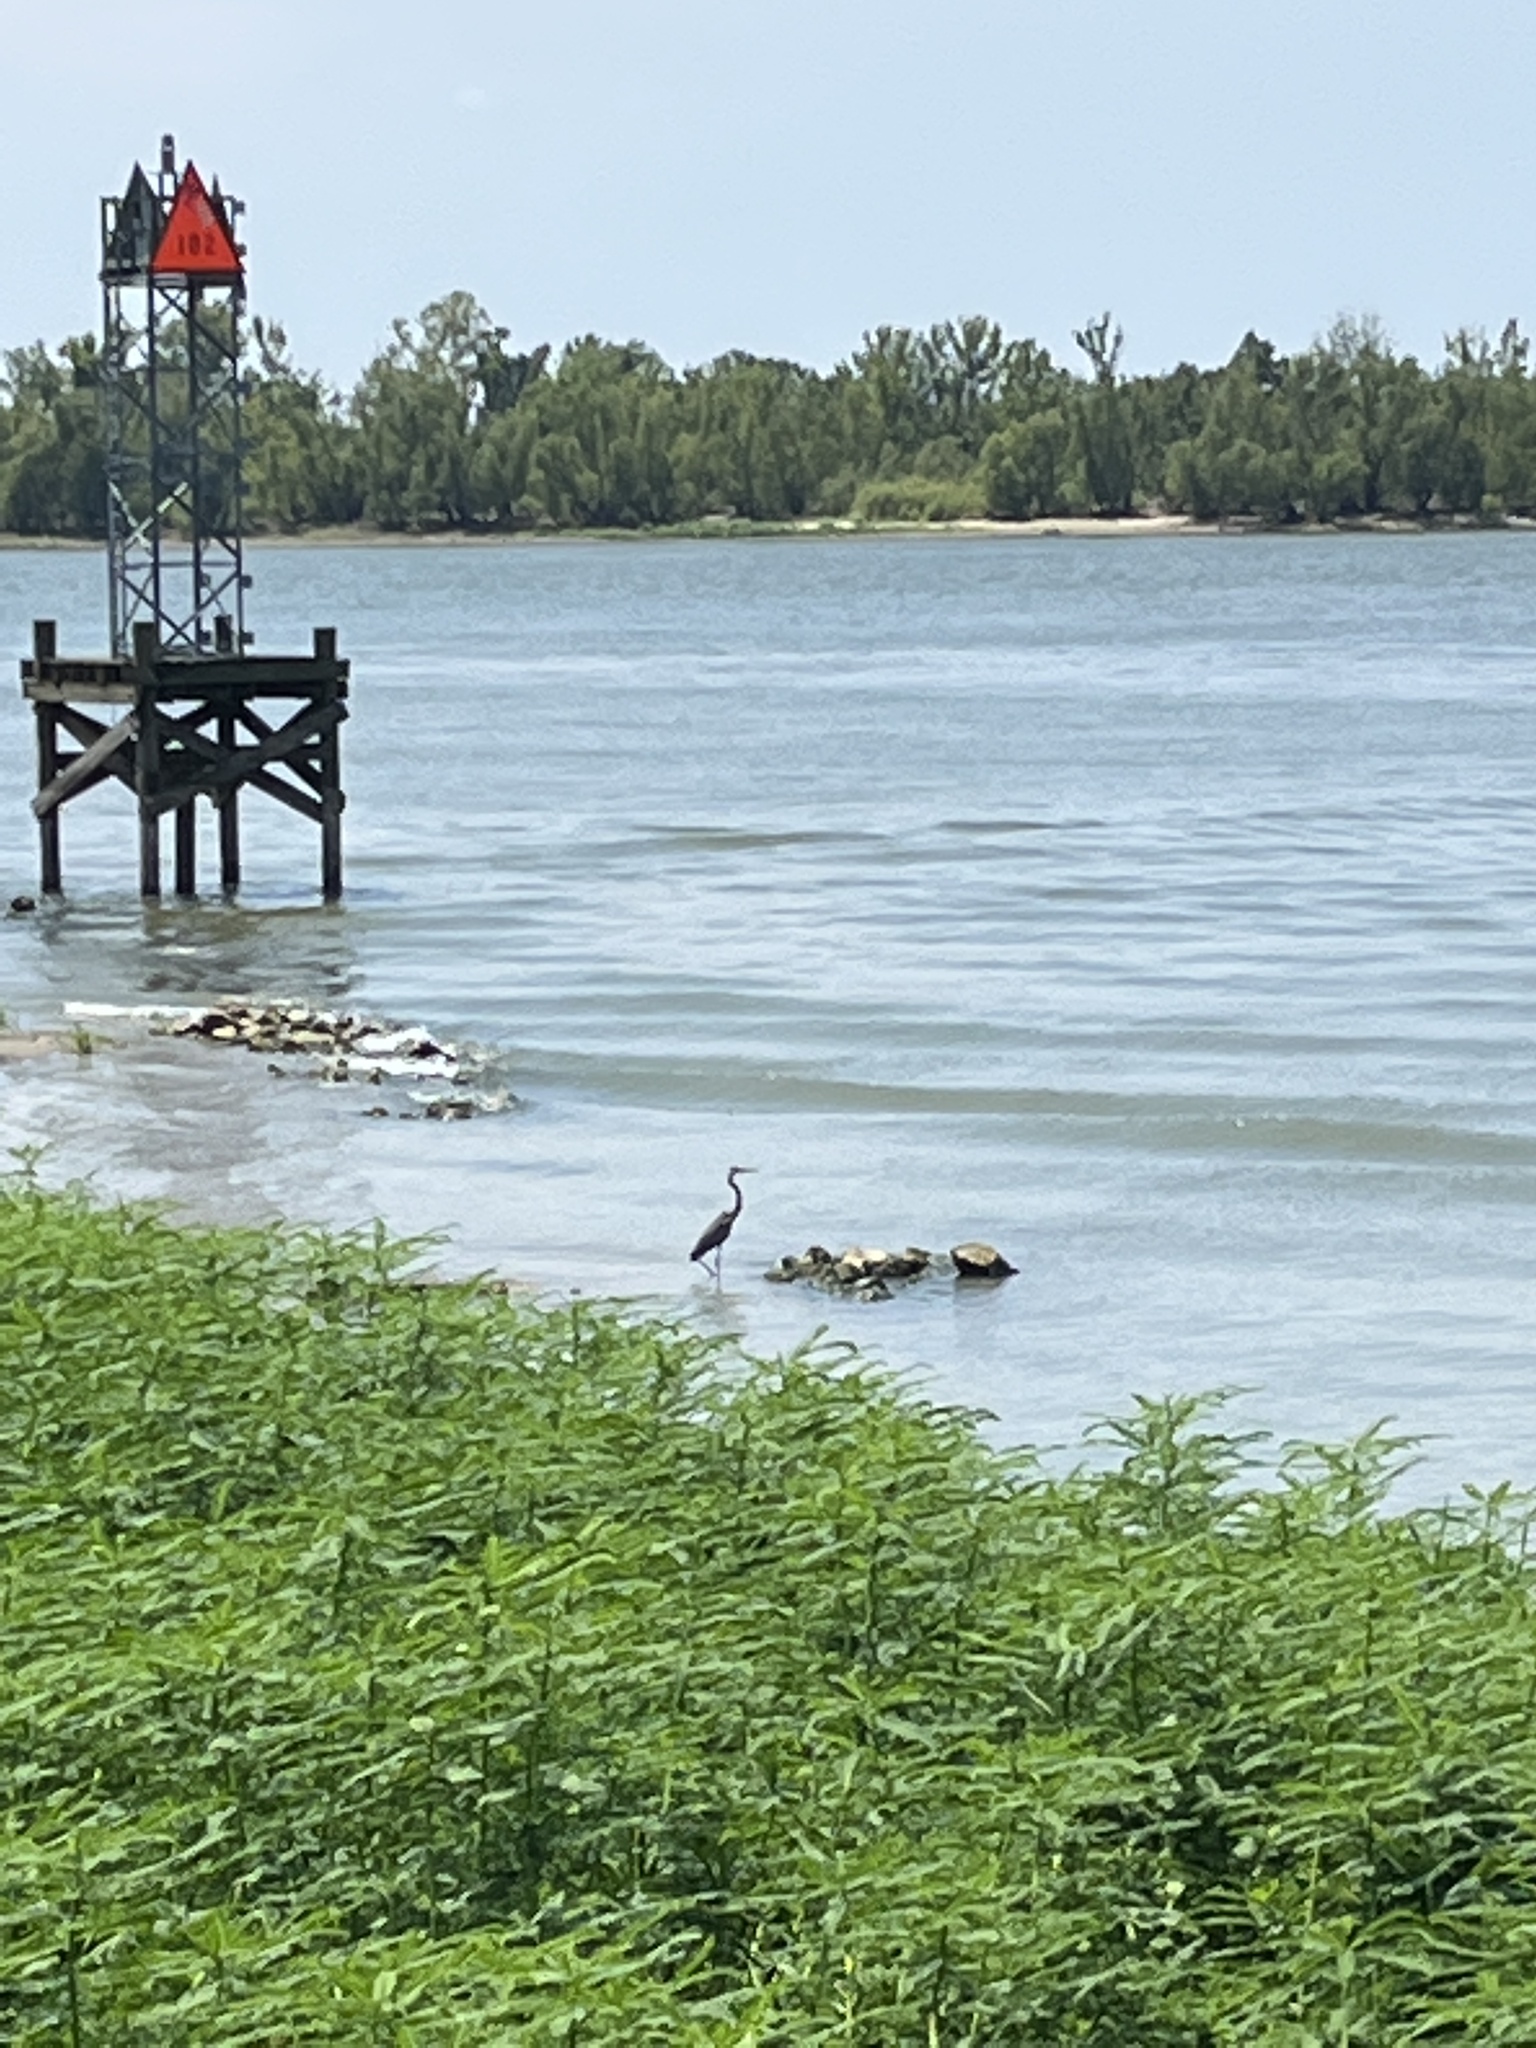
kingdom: Animalia
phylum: Chordata
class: Aves
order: Pelecaniformes
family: Ardeidae
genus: Ardea
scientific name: Ardea herodias
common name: Great blue heron
